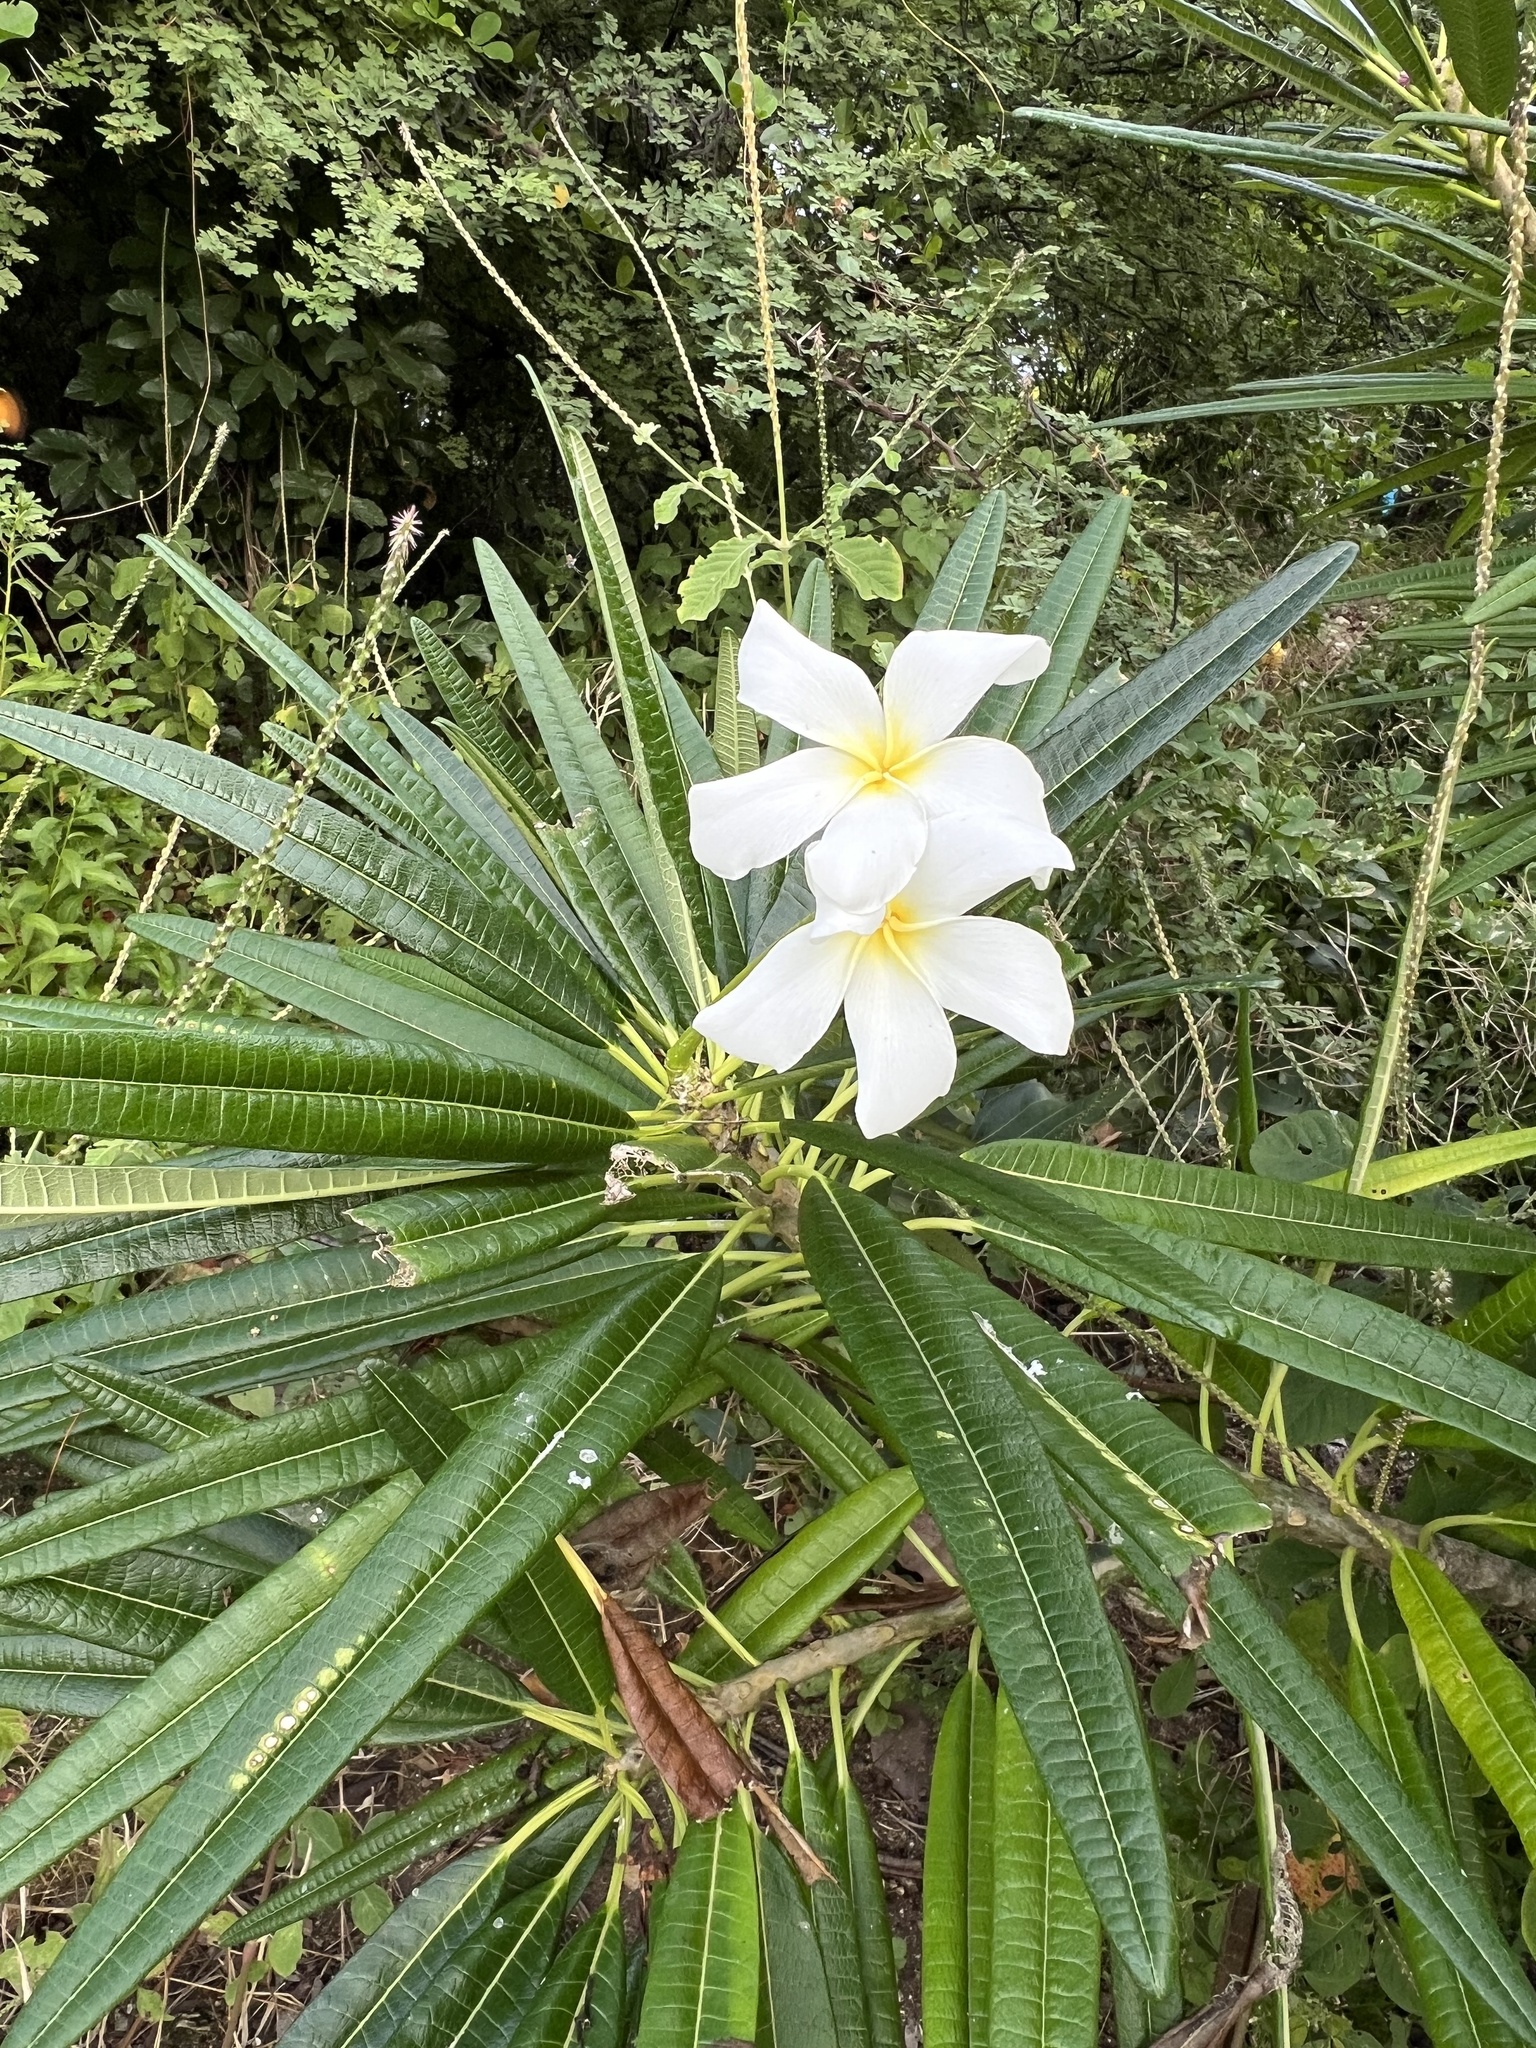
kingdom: Plantae
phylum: Tracheophyta
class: Magnoliopsida
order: Gentianales
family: Apocynaceae
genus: Plumeria
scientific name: Plumeria alba
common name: Wild frangipani
